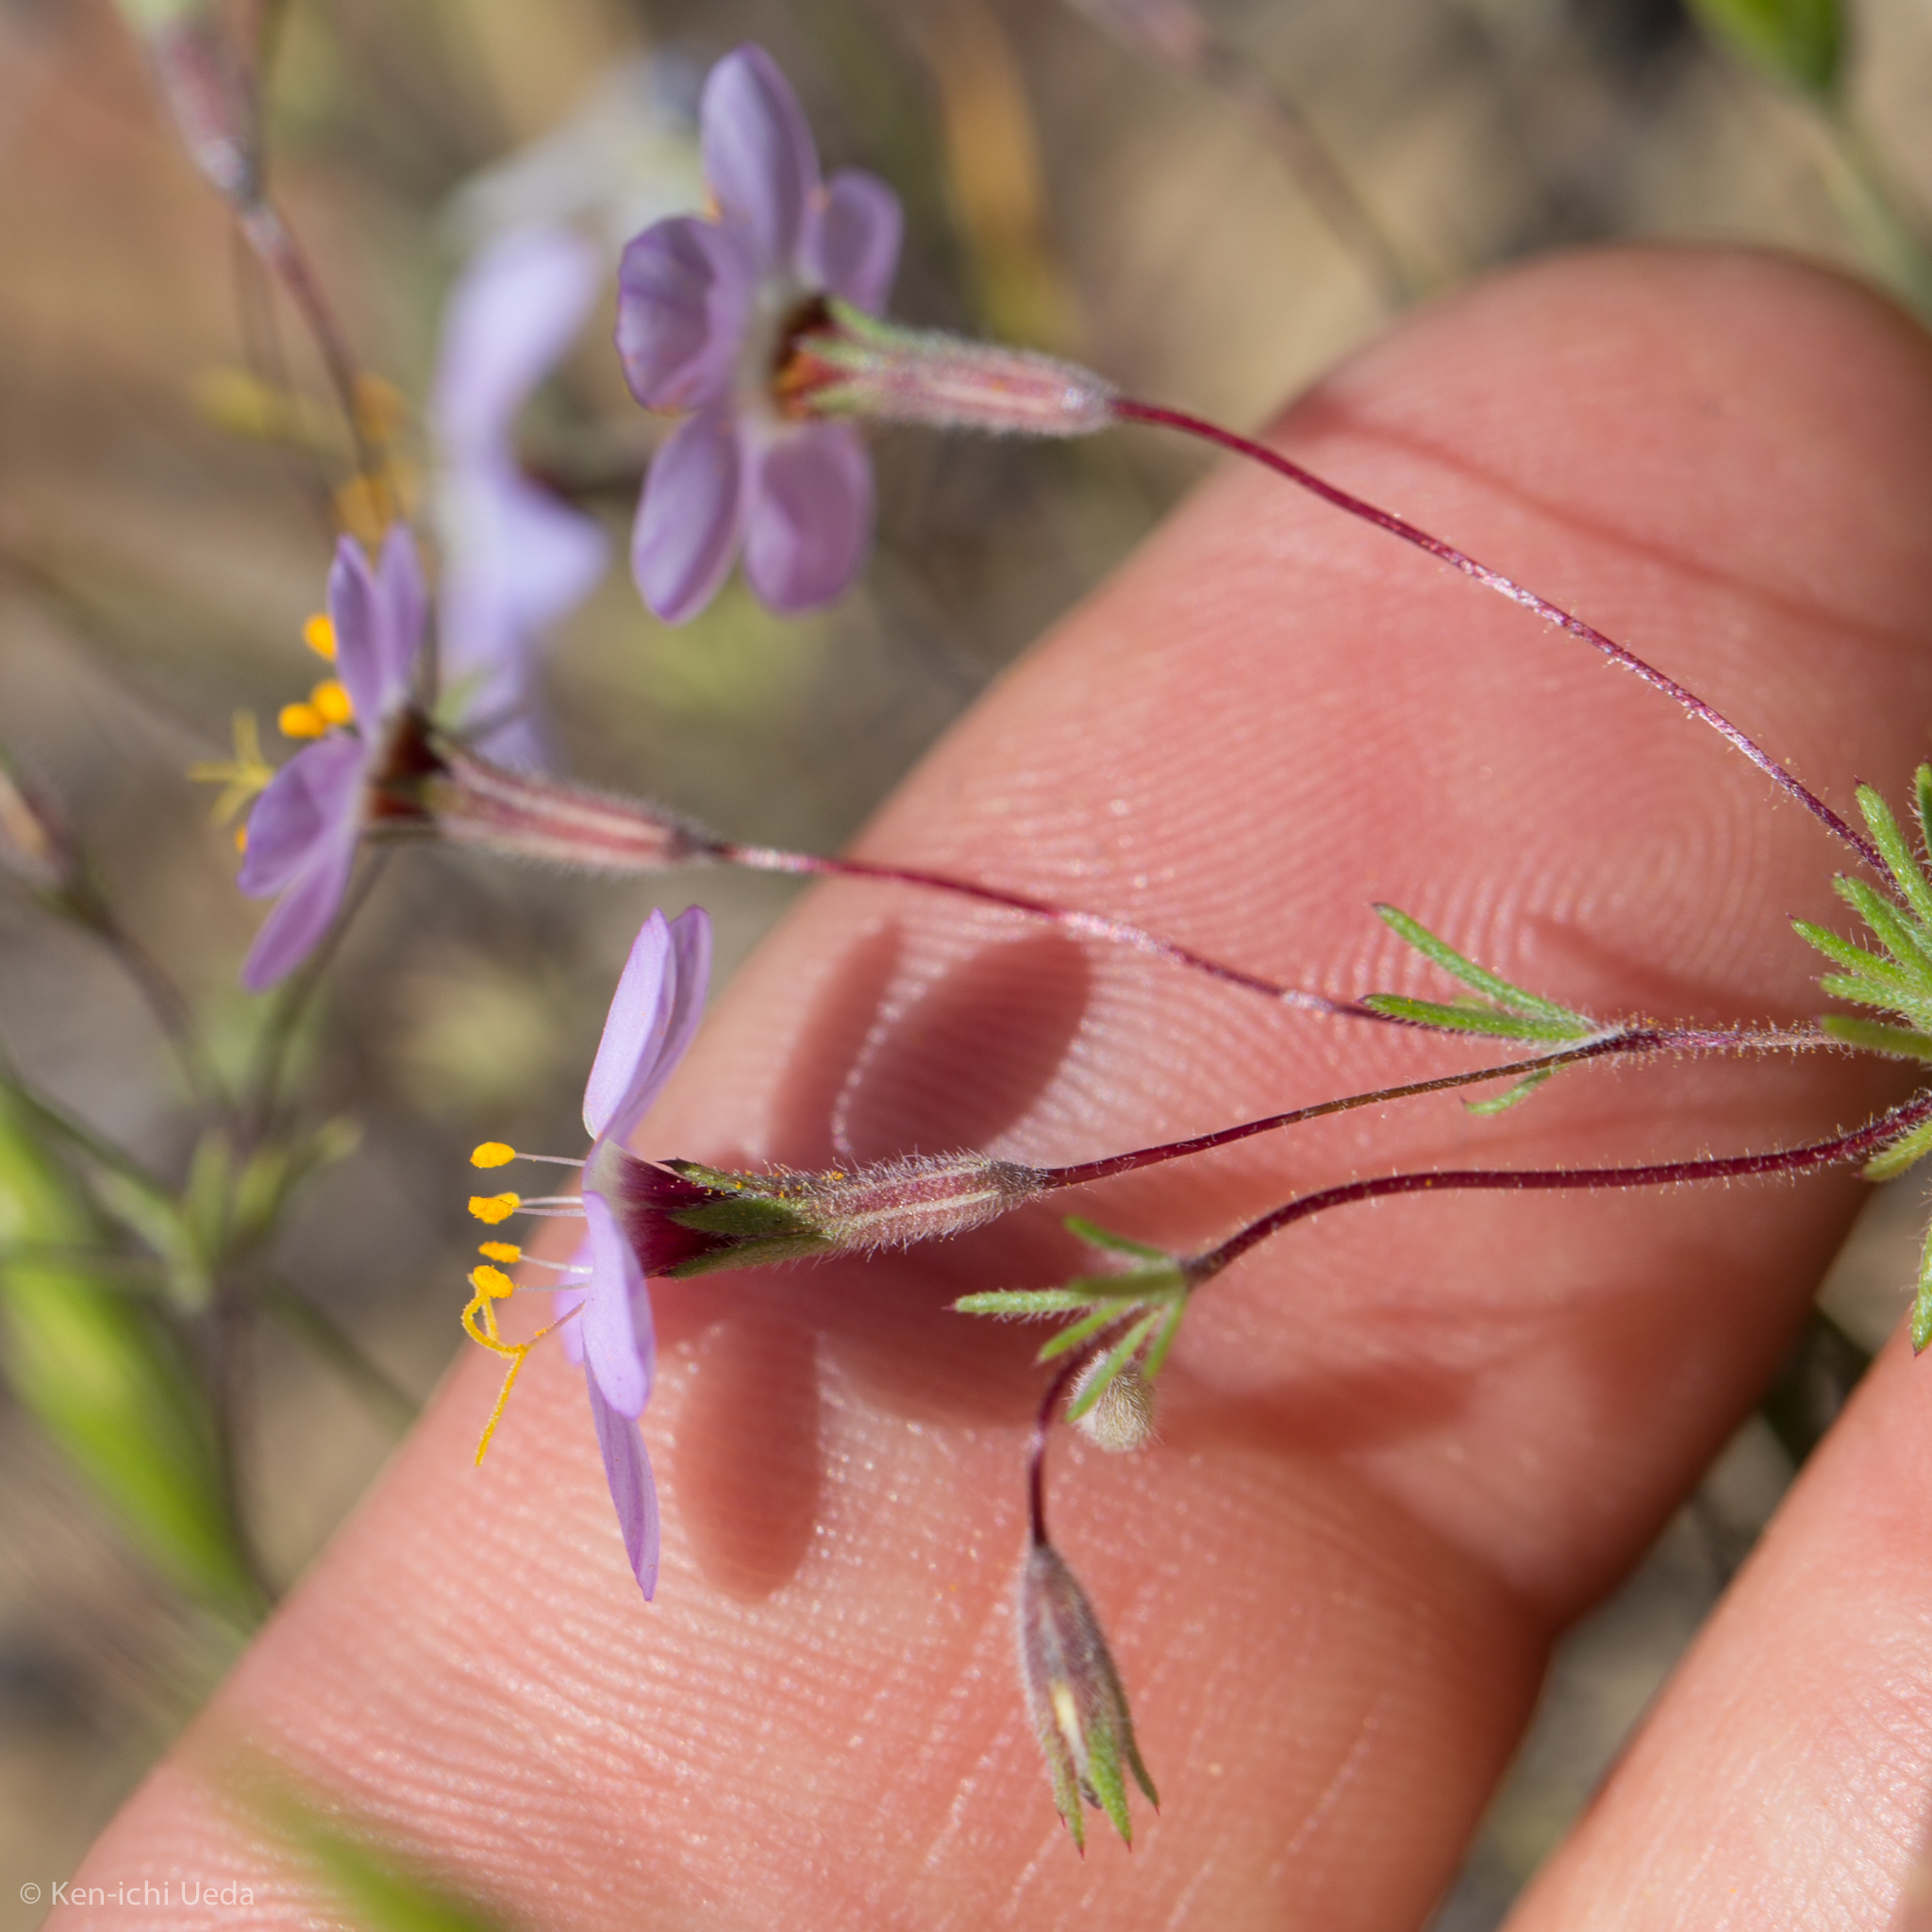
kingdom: Plantae
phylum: Tracheophyta
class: Magnoliopsida
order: Ericales
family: Polemoniaceae
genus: Leptosiphon
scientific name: Leptosiphon ambiguus
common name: Serpentine linanthus
